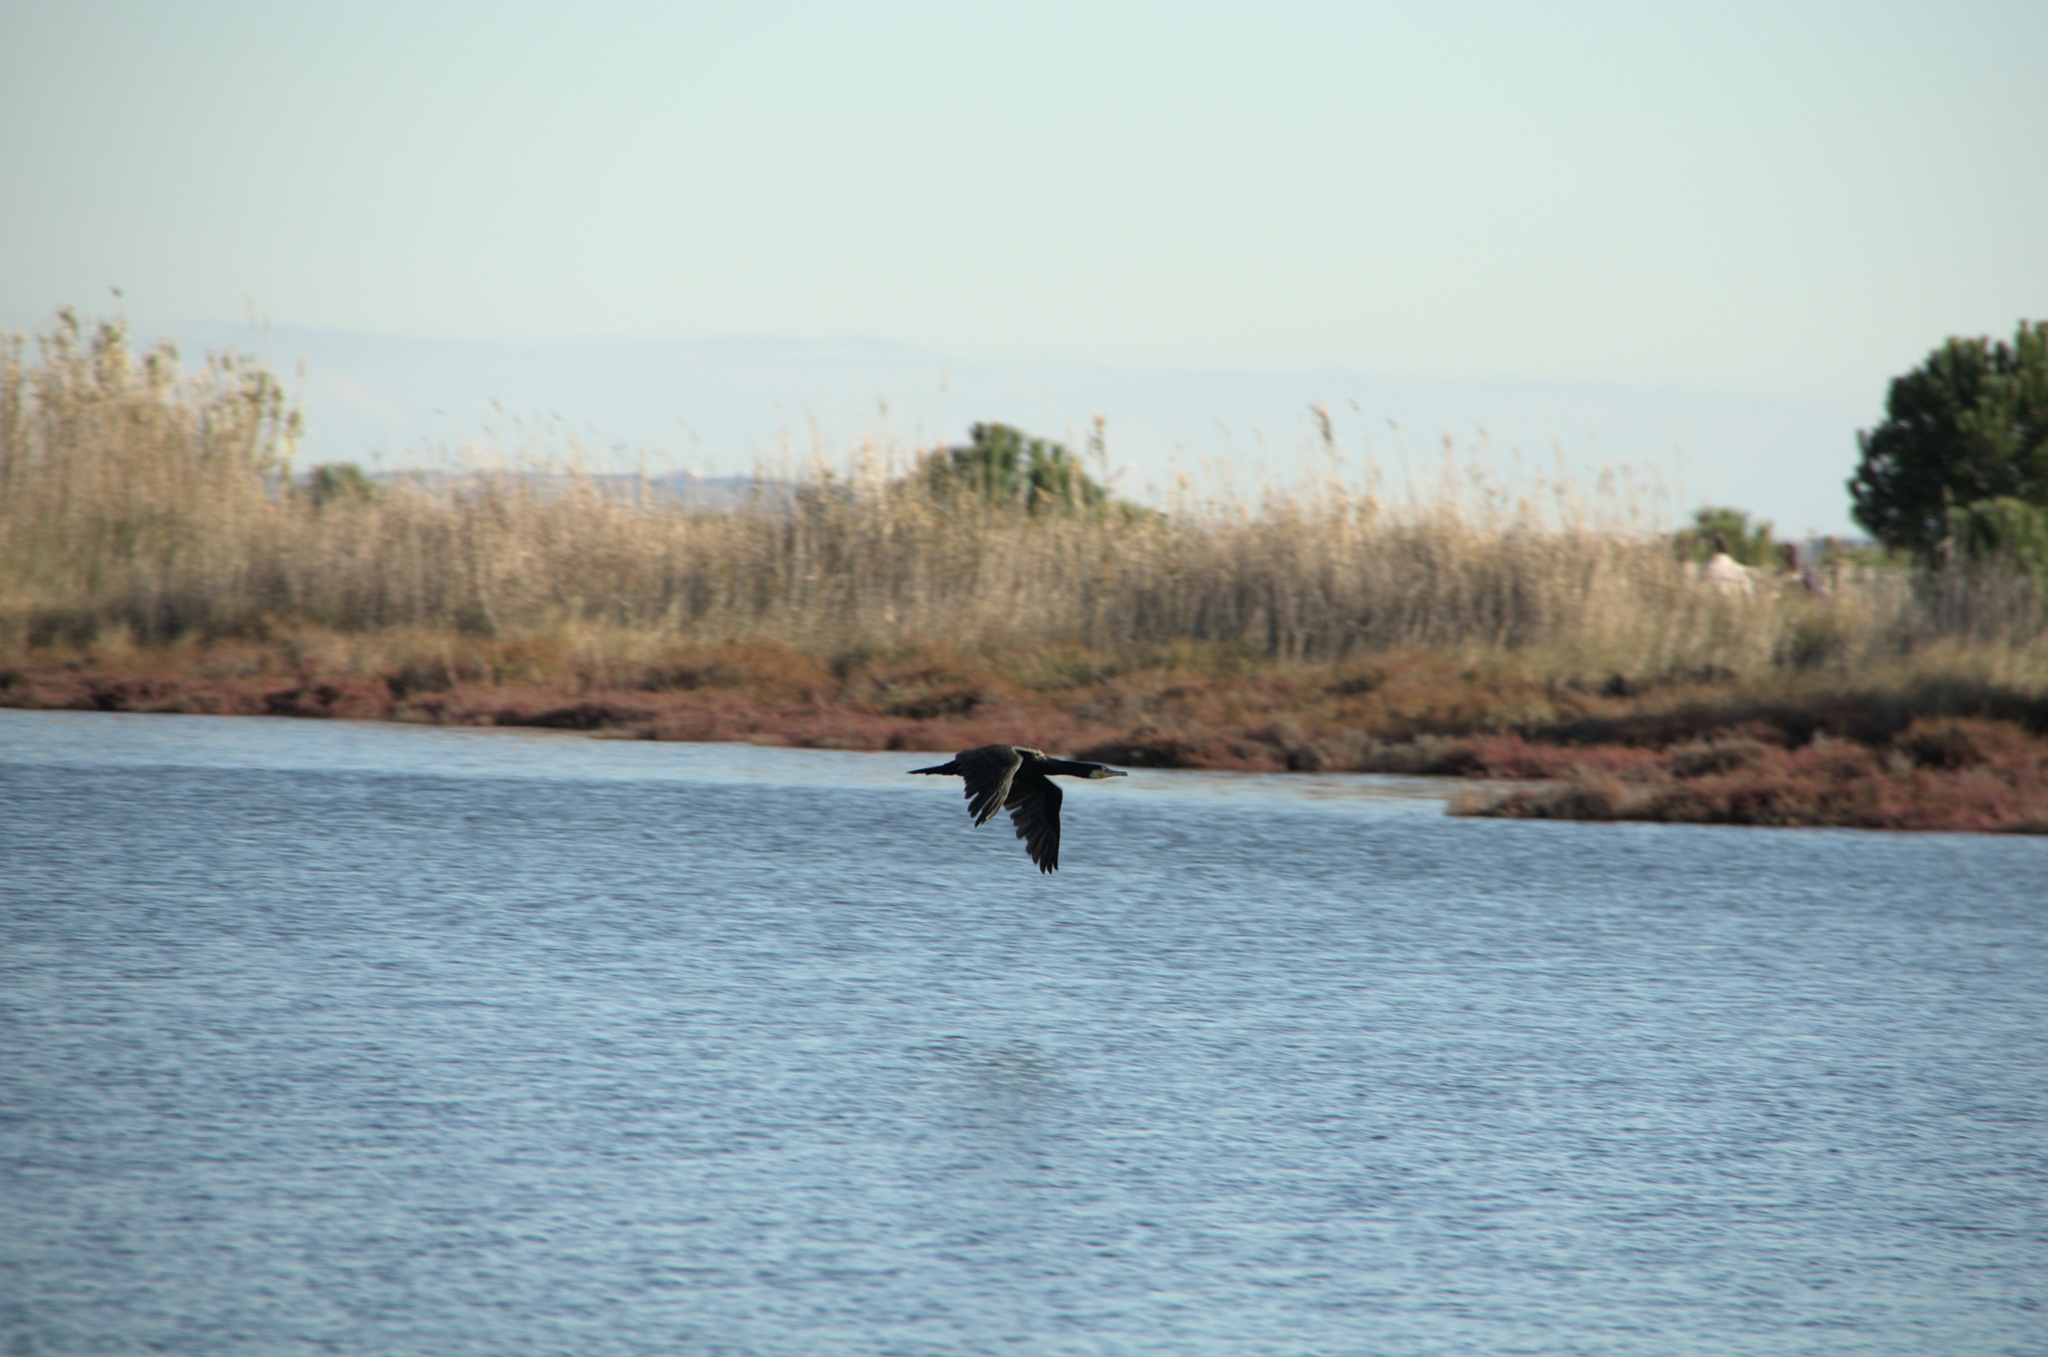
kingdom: Animalia
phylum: Chordata
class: Aves
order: Suliformes
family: Phalacrocoracidae
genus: Phalacrocorax
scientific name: Phalacrocorax carbo
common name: Great cormorant
